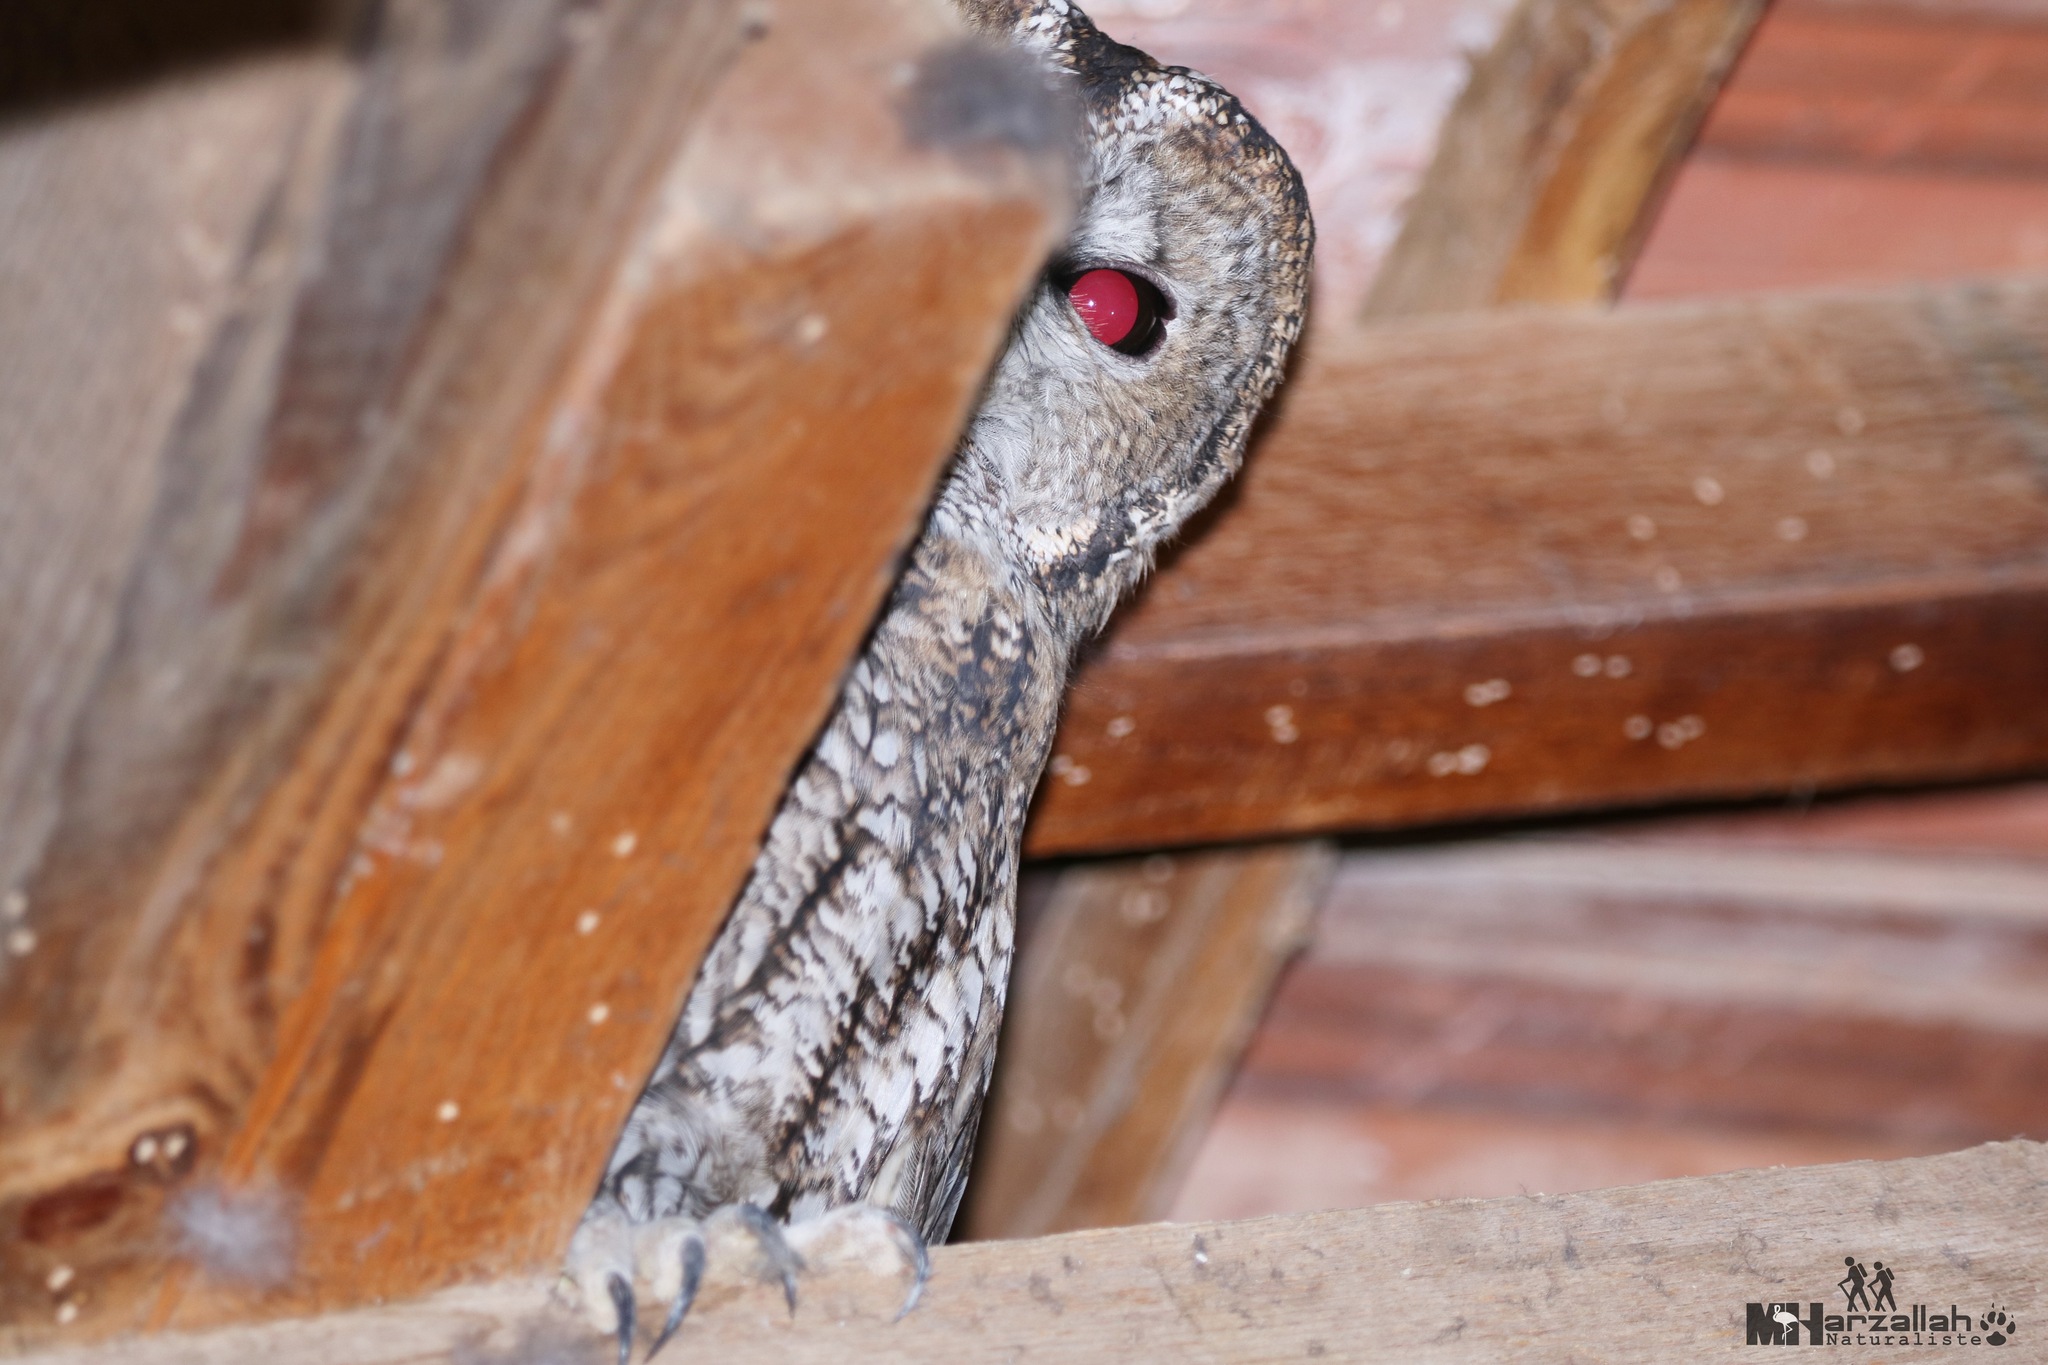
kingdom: Animalia
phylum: Chordata
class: Aves
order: Strigiformes
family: Strigidae
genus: Strix
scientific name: Strix aluco
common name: Tawny owl
